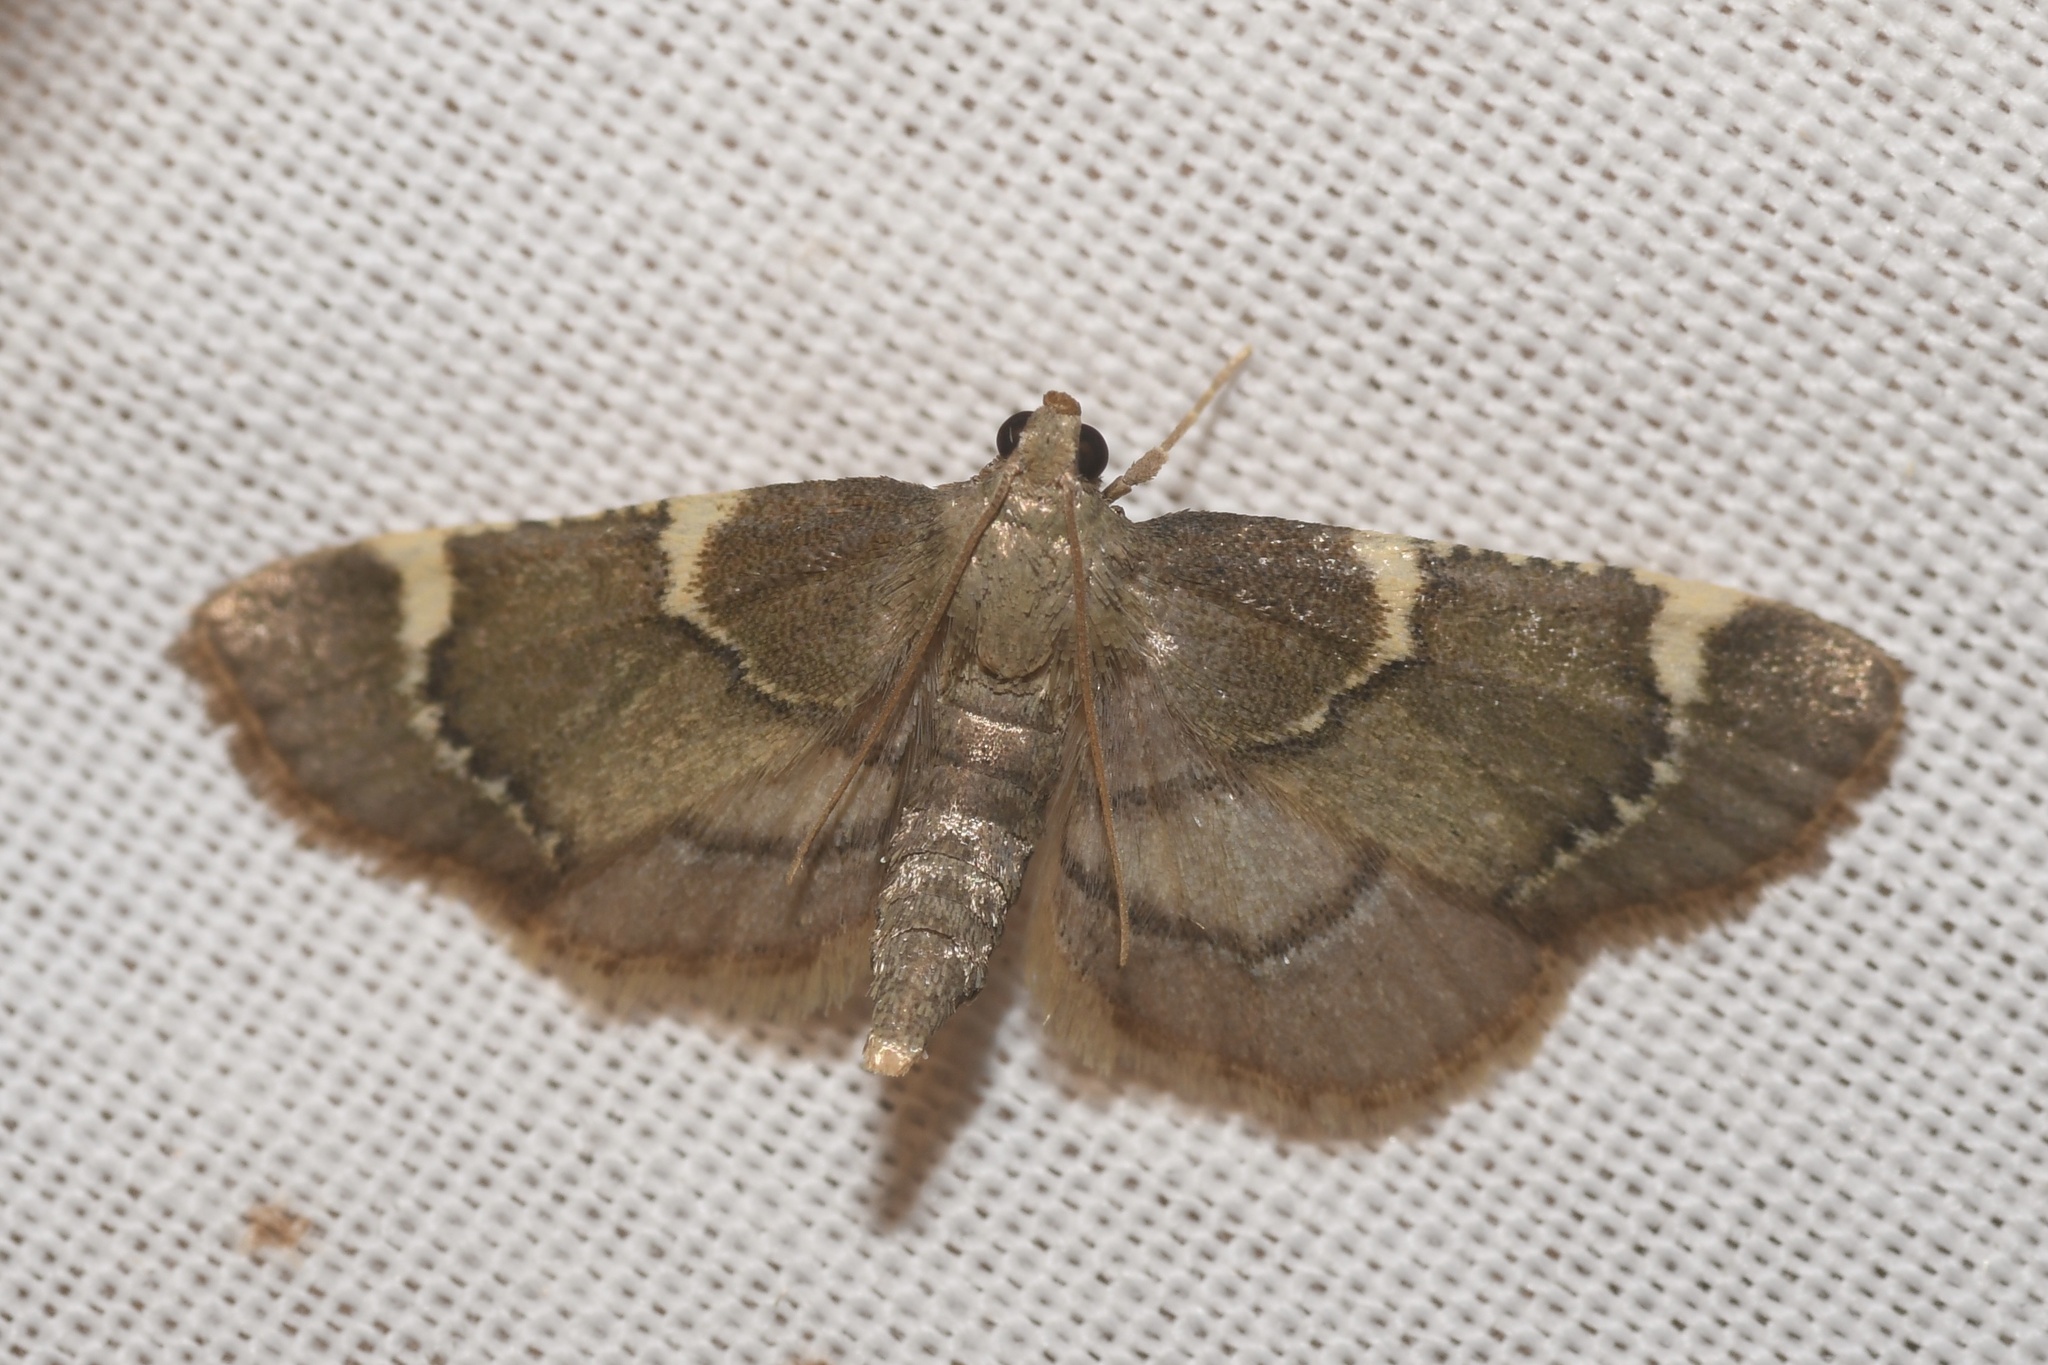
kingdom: Animalia
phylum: Arthropoda
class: Insecta
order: Lepidoptera
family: Pyralidae
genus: Hypsopygia
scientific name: Hypsopygia thymetusalis
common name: Spruce needleworm moth
